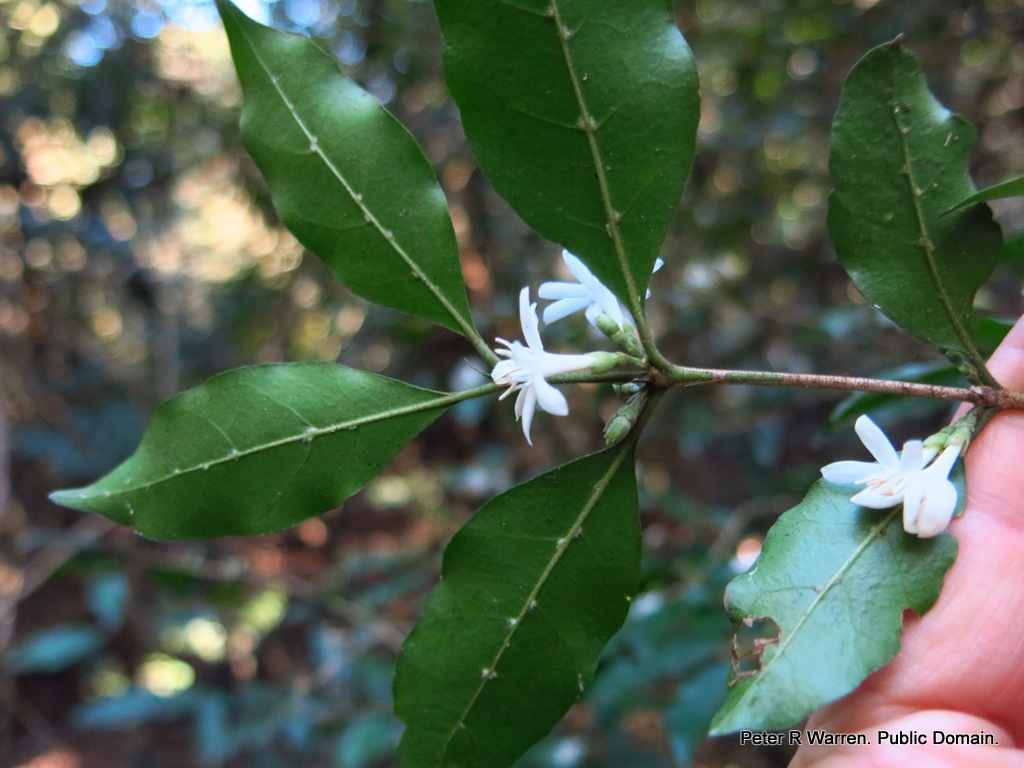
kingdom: Plantae
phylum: Tracheophyta
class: Magnoliopsida
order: Gentianales
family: Rubiaceae
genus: Tricalysia
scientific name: Tricalysia capensis
